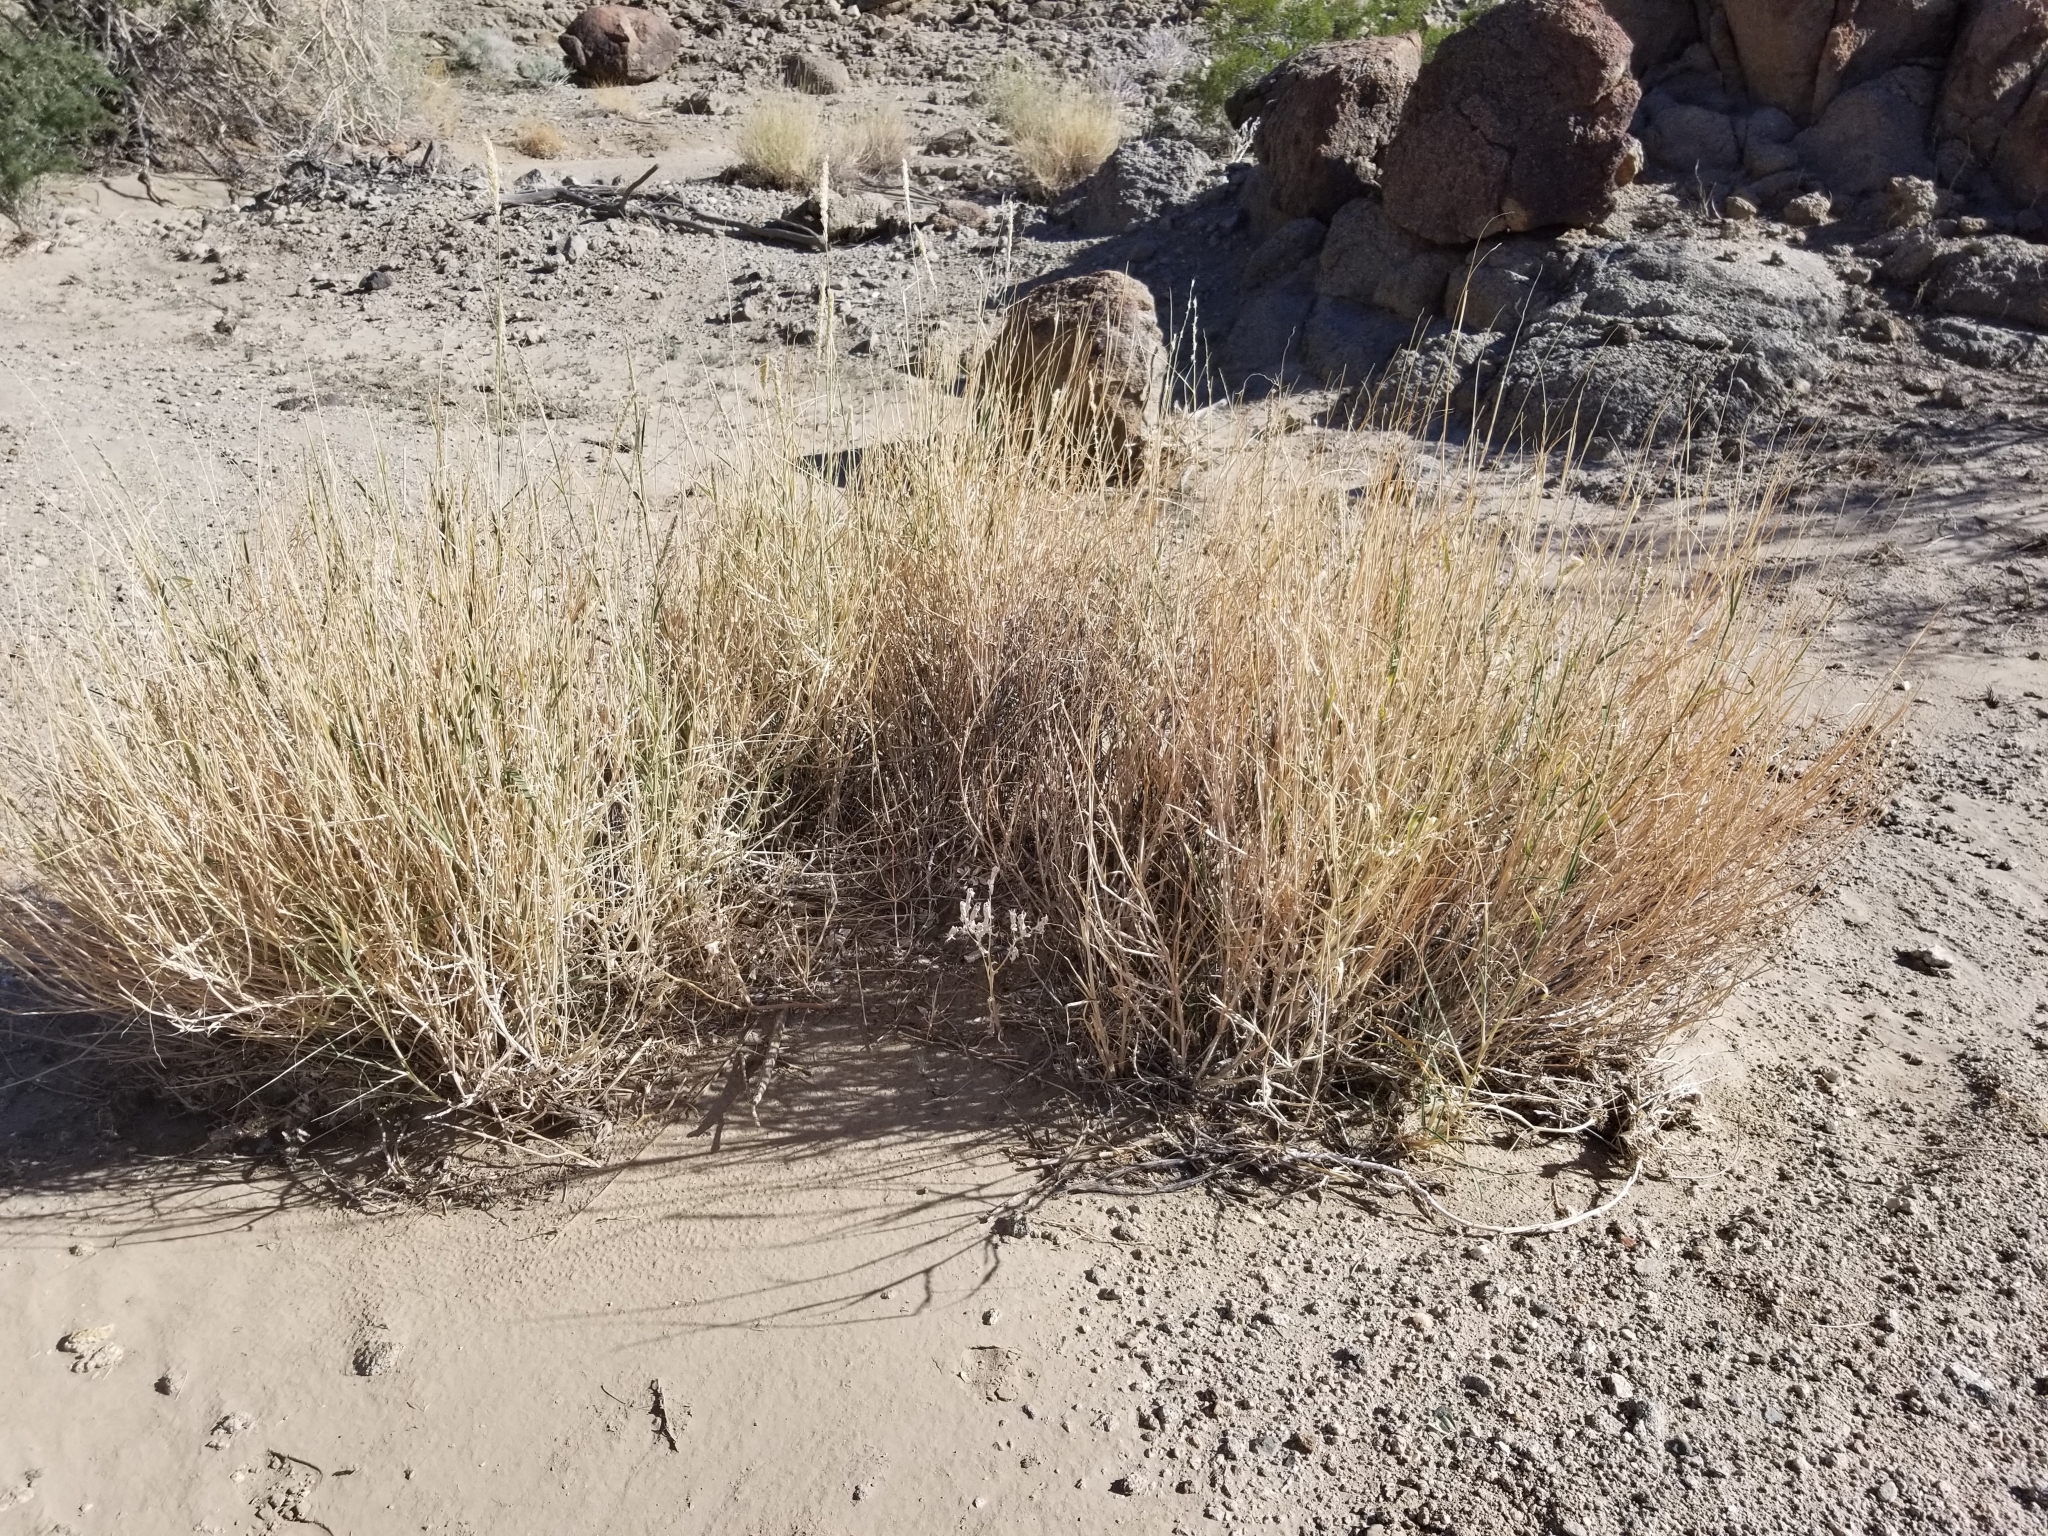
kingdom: Plantae
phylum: Tracheophyta
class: Liliopsida
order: Poales
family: Poaceae
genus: Hilaria
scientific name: Hilaria rigida
